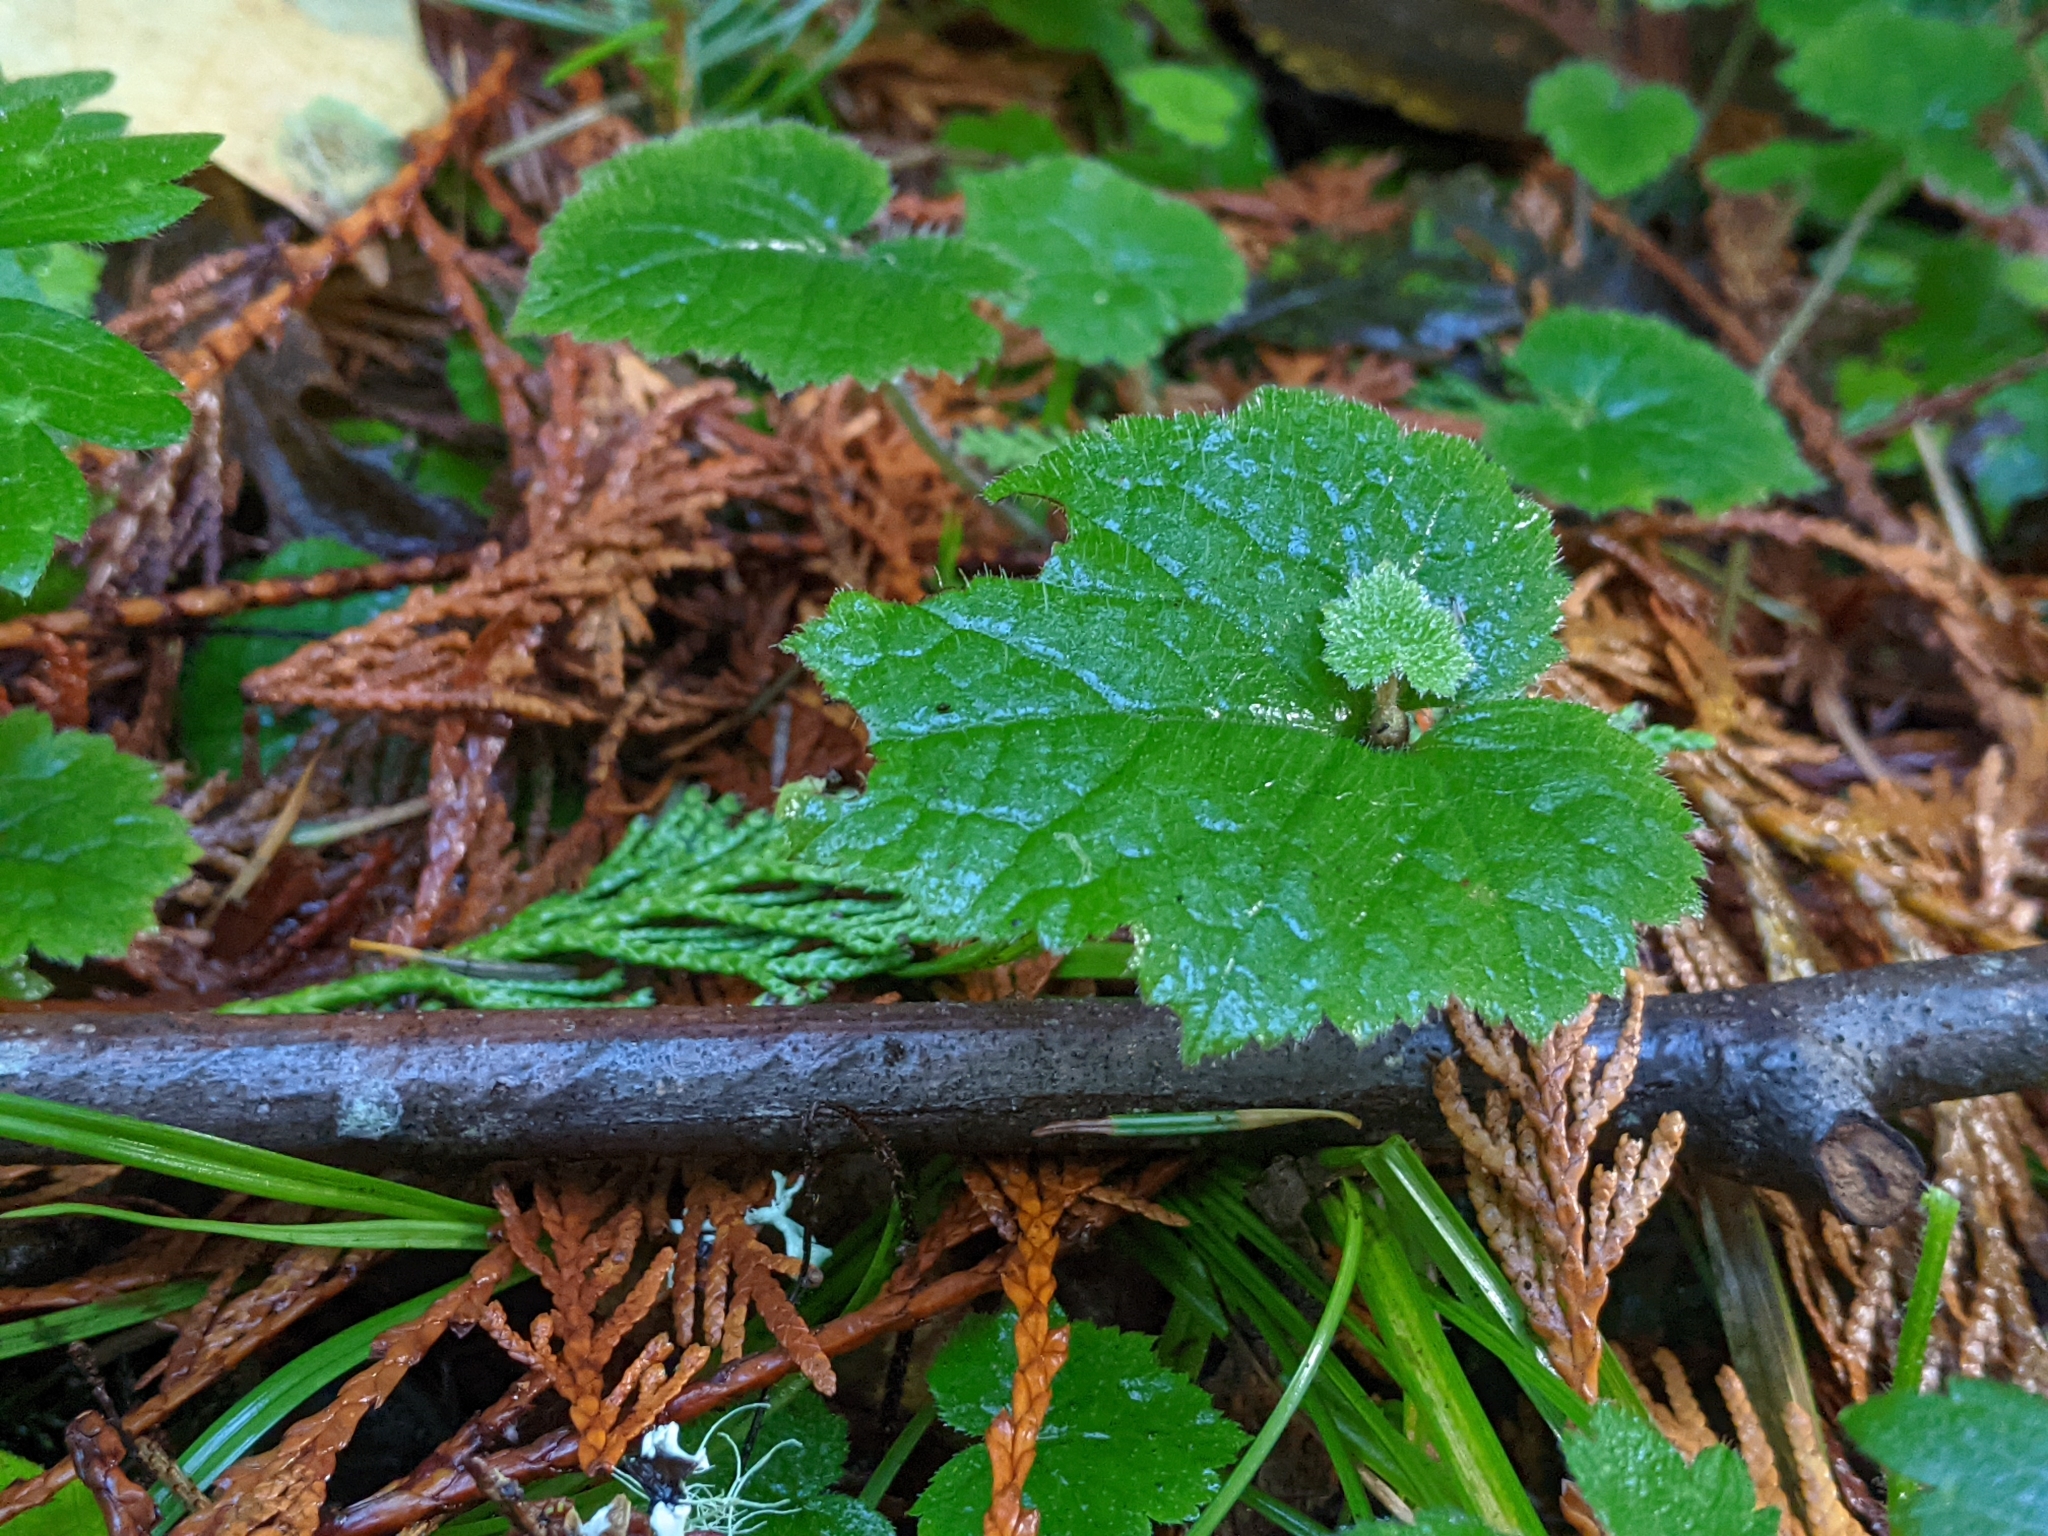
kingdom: Plantae
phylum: Tracheophyta
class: Magnoliopsida
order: Saxifragales
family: Saxifragaceae
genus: Tolmiea
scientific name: Tolmiea menziesii
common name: Pick-a-back-plant
